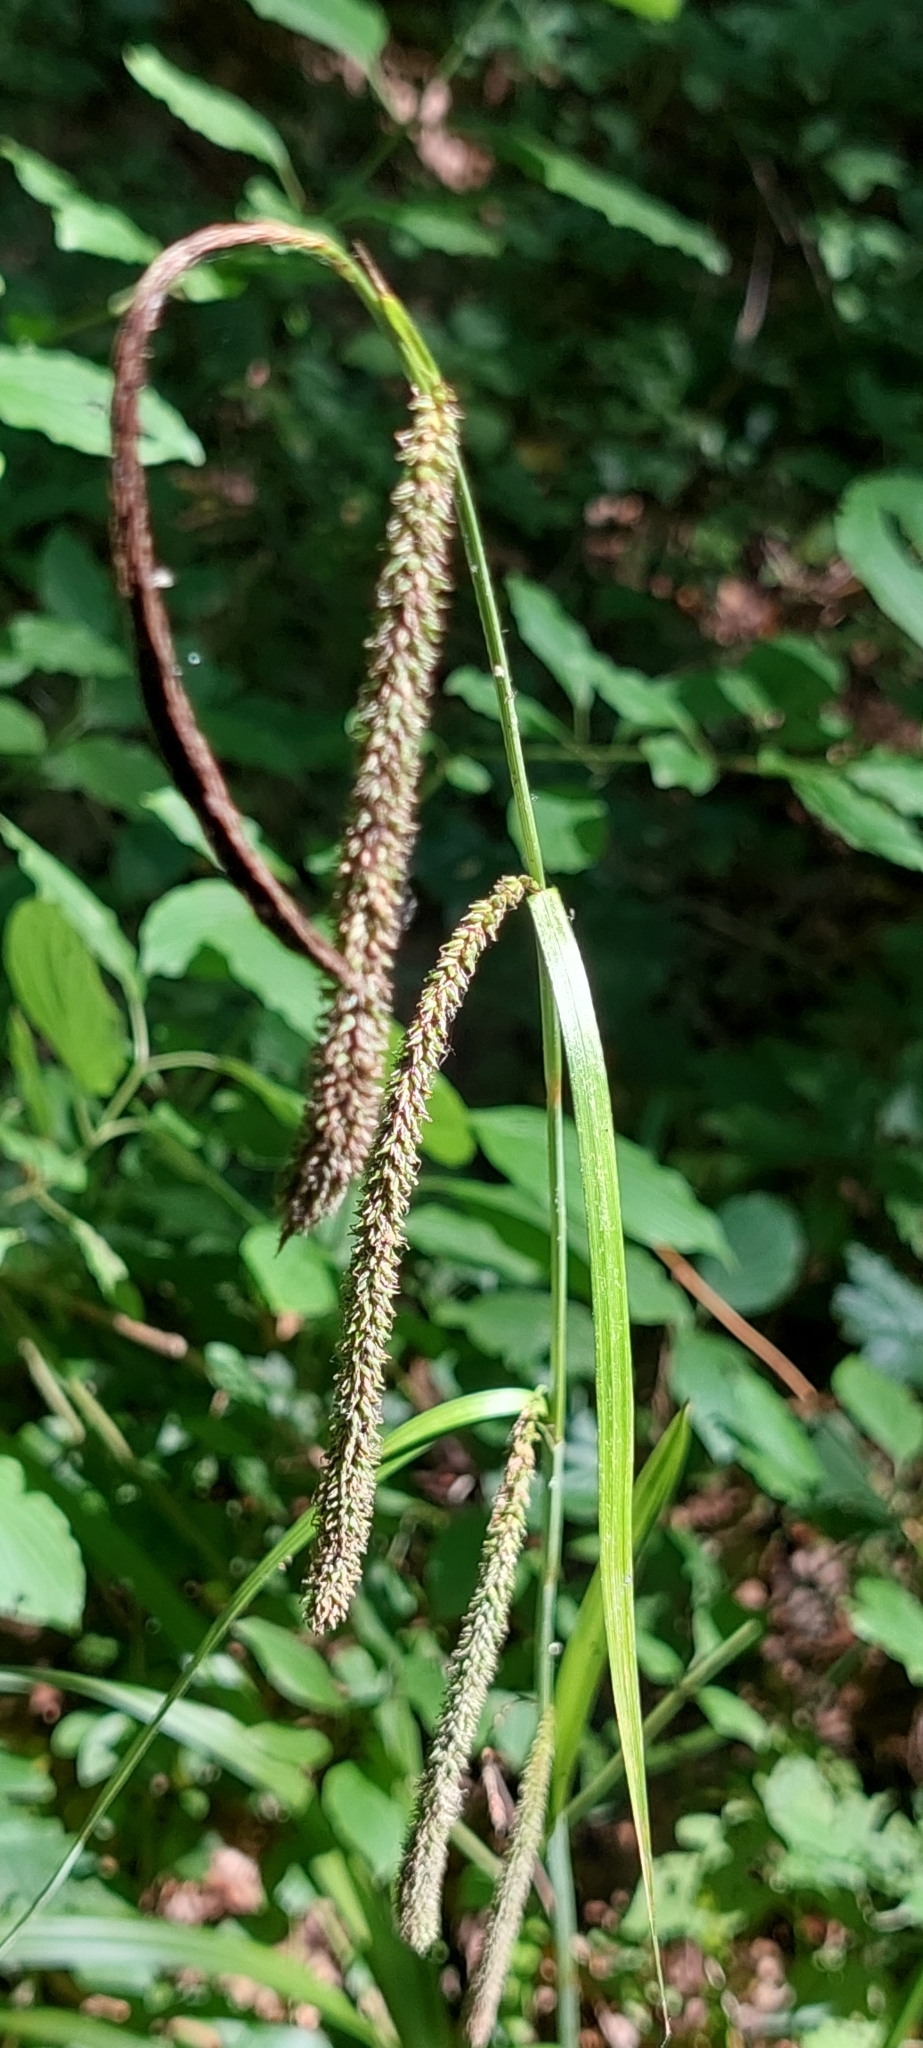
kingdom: Plantae
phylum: Tracheophyta
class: Liliopsida
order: Poales
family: Cyperaceae
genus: Carex
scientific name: Carex pendula
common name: Pendulous sedge
